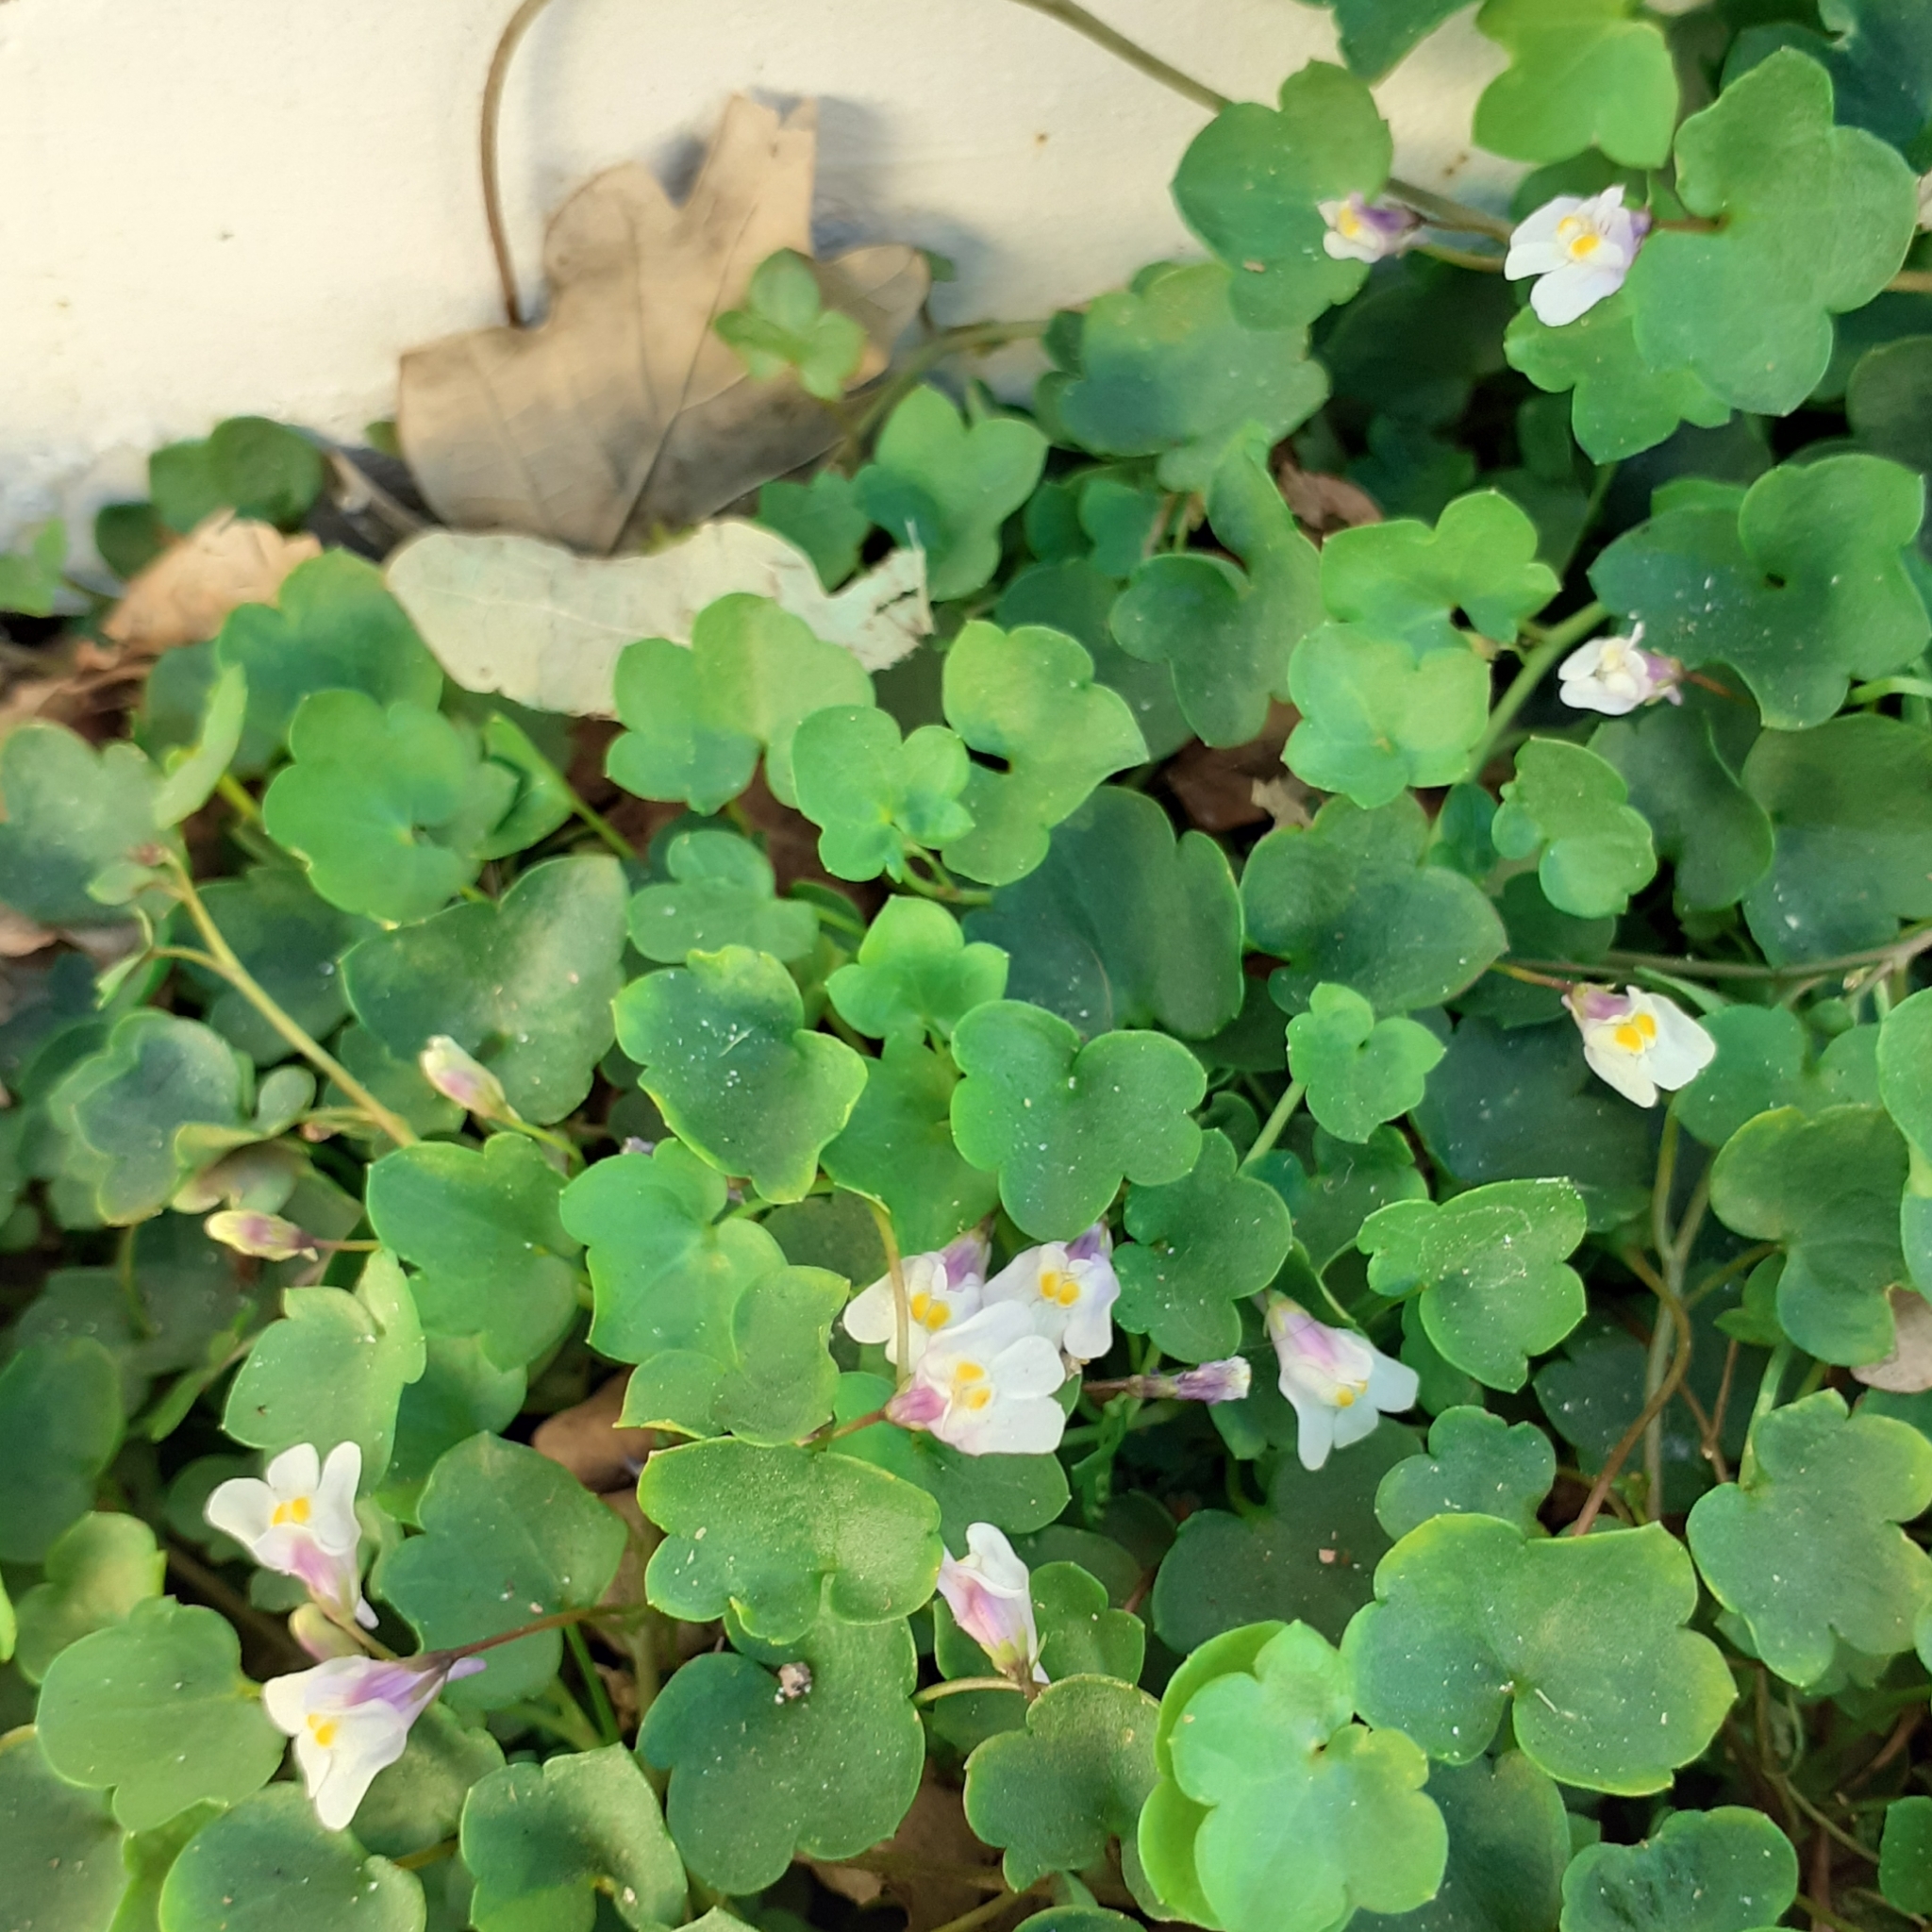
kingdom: Plantae
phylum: Tracheophyta
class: Magnoliopsida
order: Lamiales
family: Plantaginaceae
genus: Cymbalaria
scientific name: Cymbalaria muralis
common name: Ivy-leaved toadflax
